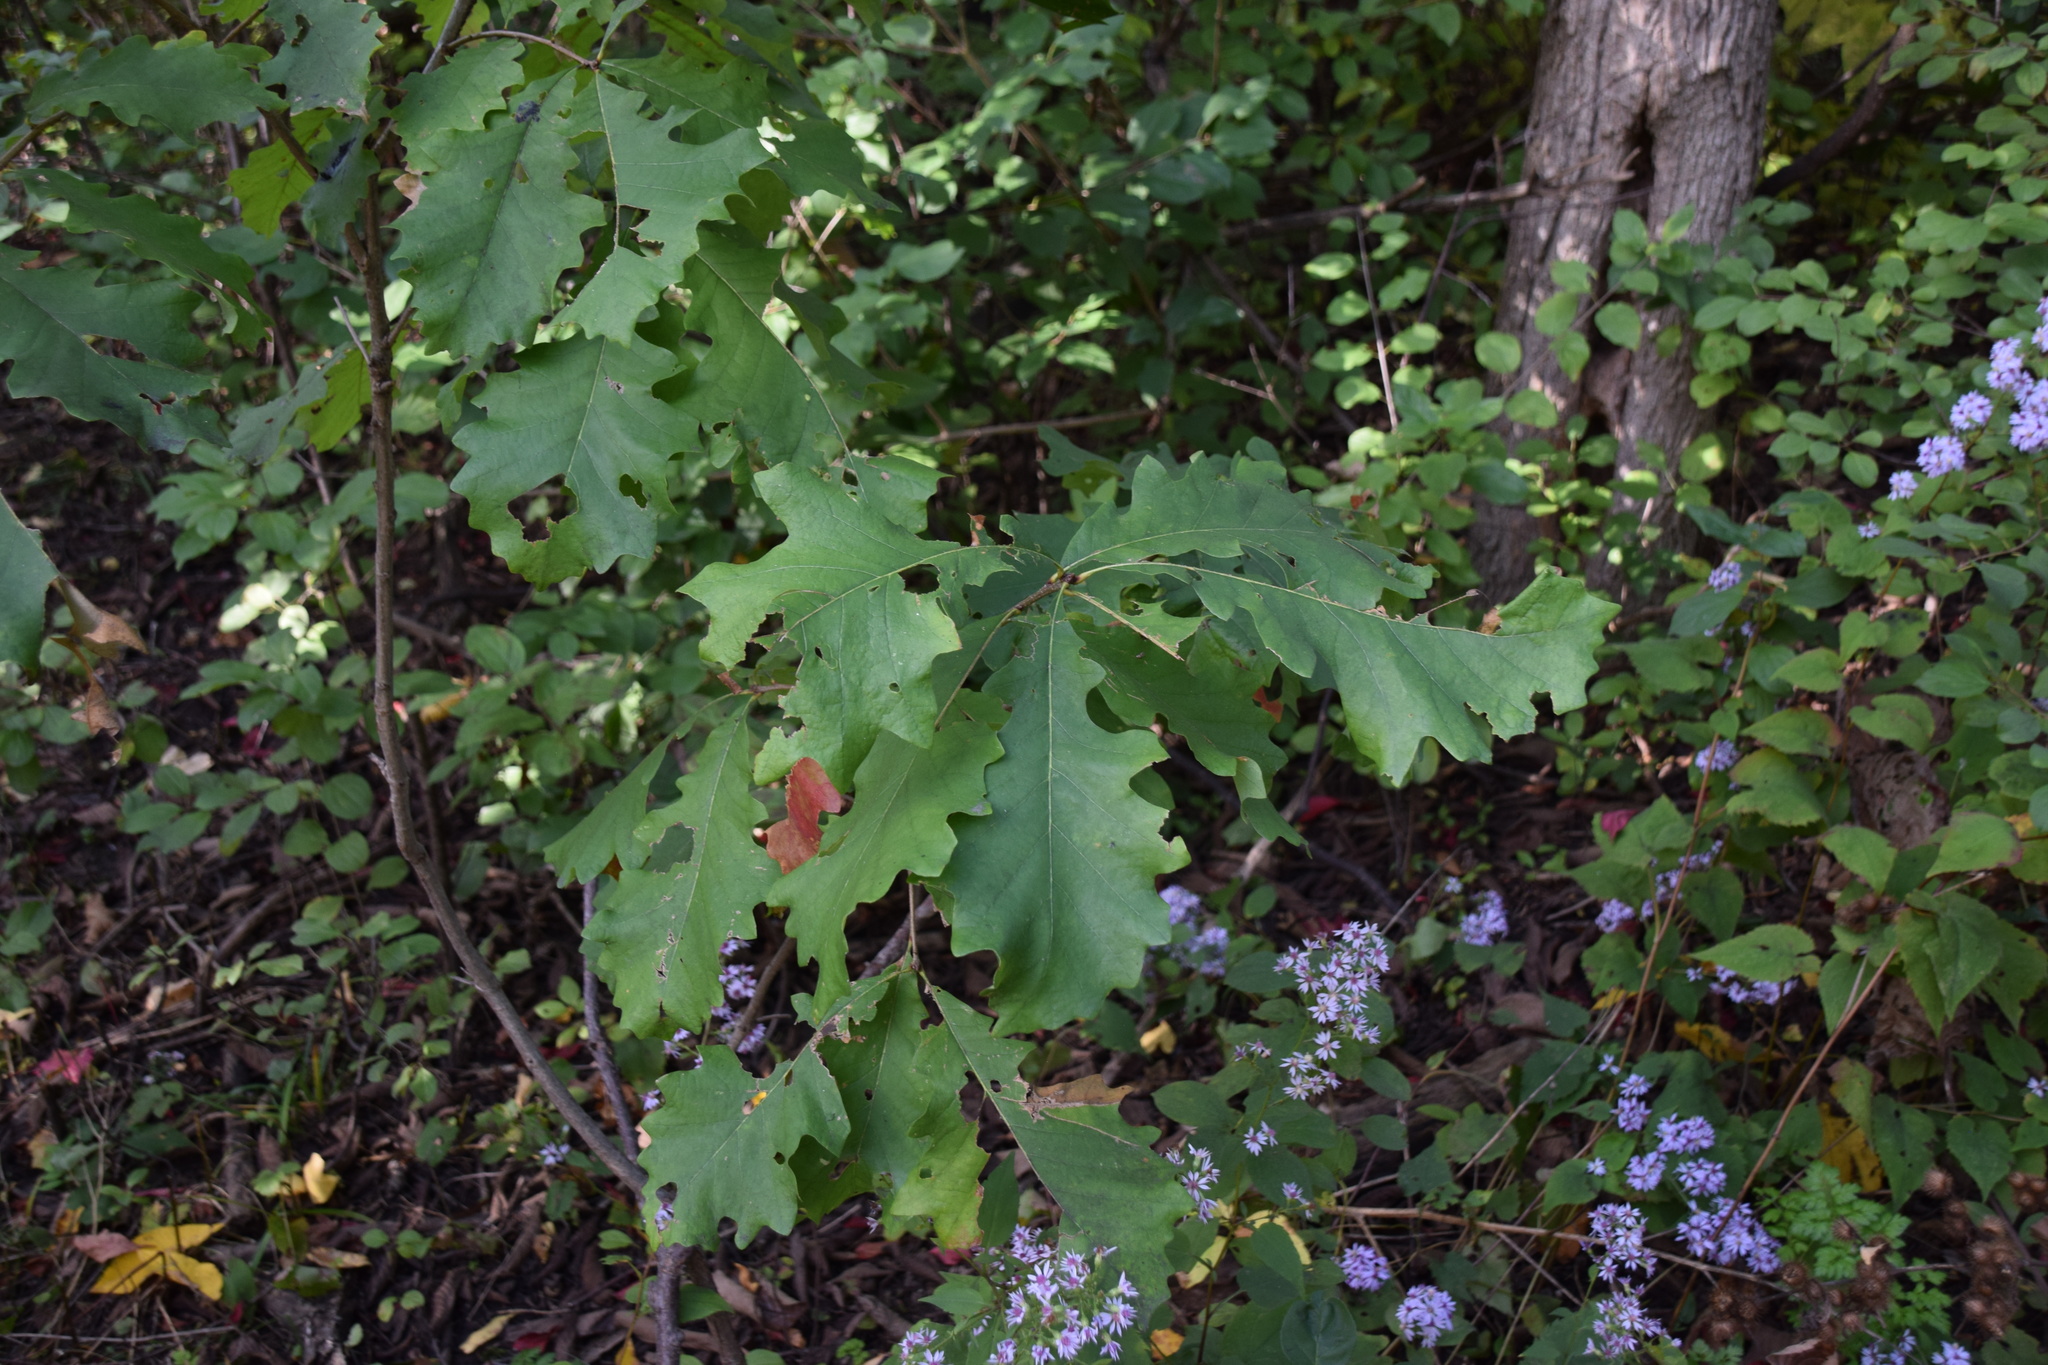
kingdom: Plantae
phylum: Tracheophyta
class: Magnoliopsida
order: Fagales
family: Fagaceae
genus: Quercus
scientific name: Quercus macrocarpa
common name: Bur oak
